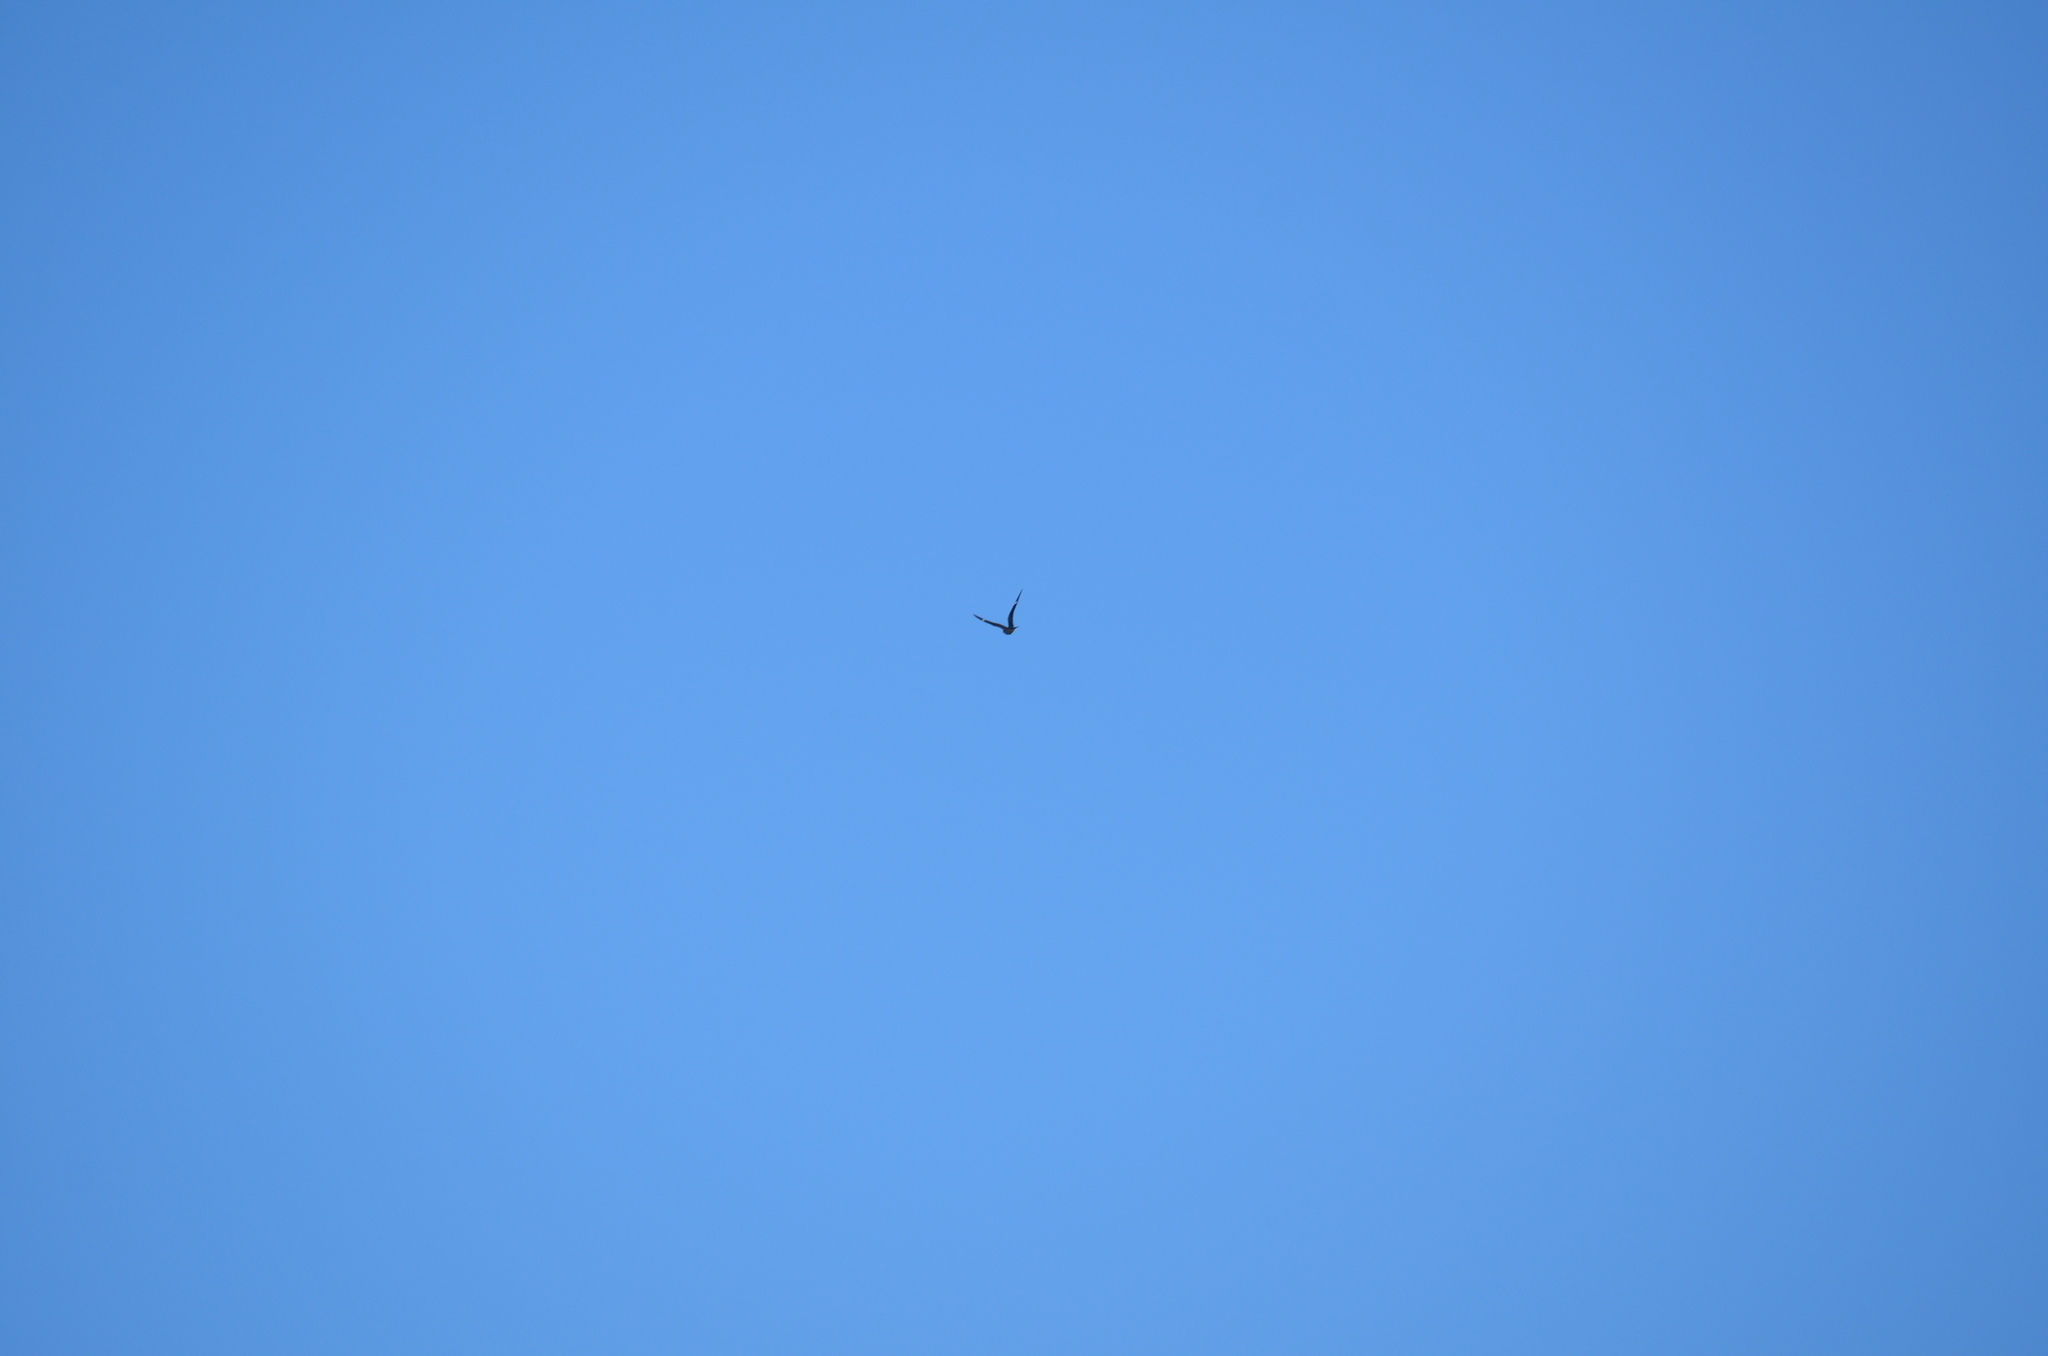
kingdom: Animalia
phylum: Chordata
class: Aves
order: Caprimulgiformes
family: Caprimulgidae
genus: Chordeiles
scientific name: Chordeiles minor
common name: Common nighthawk
